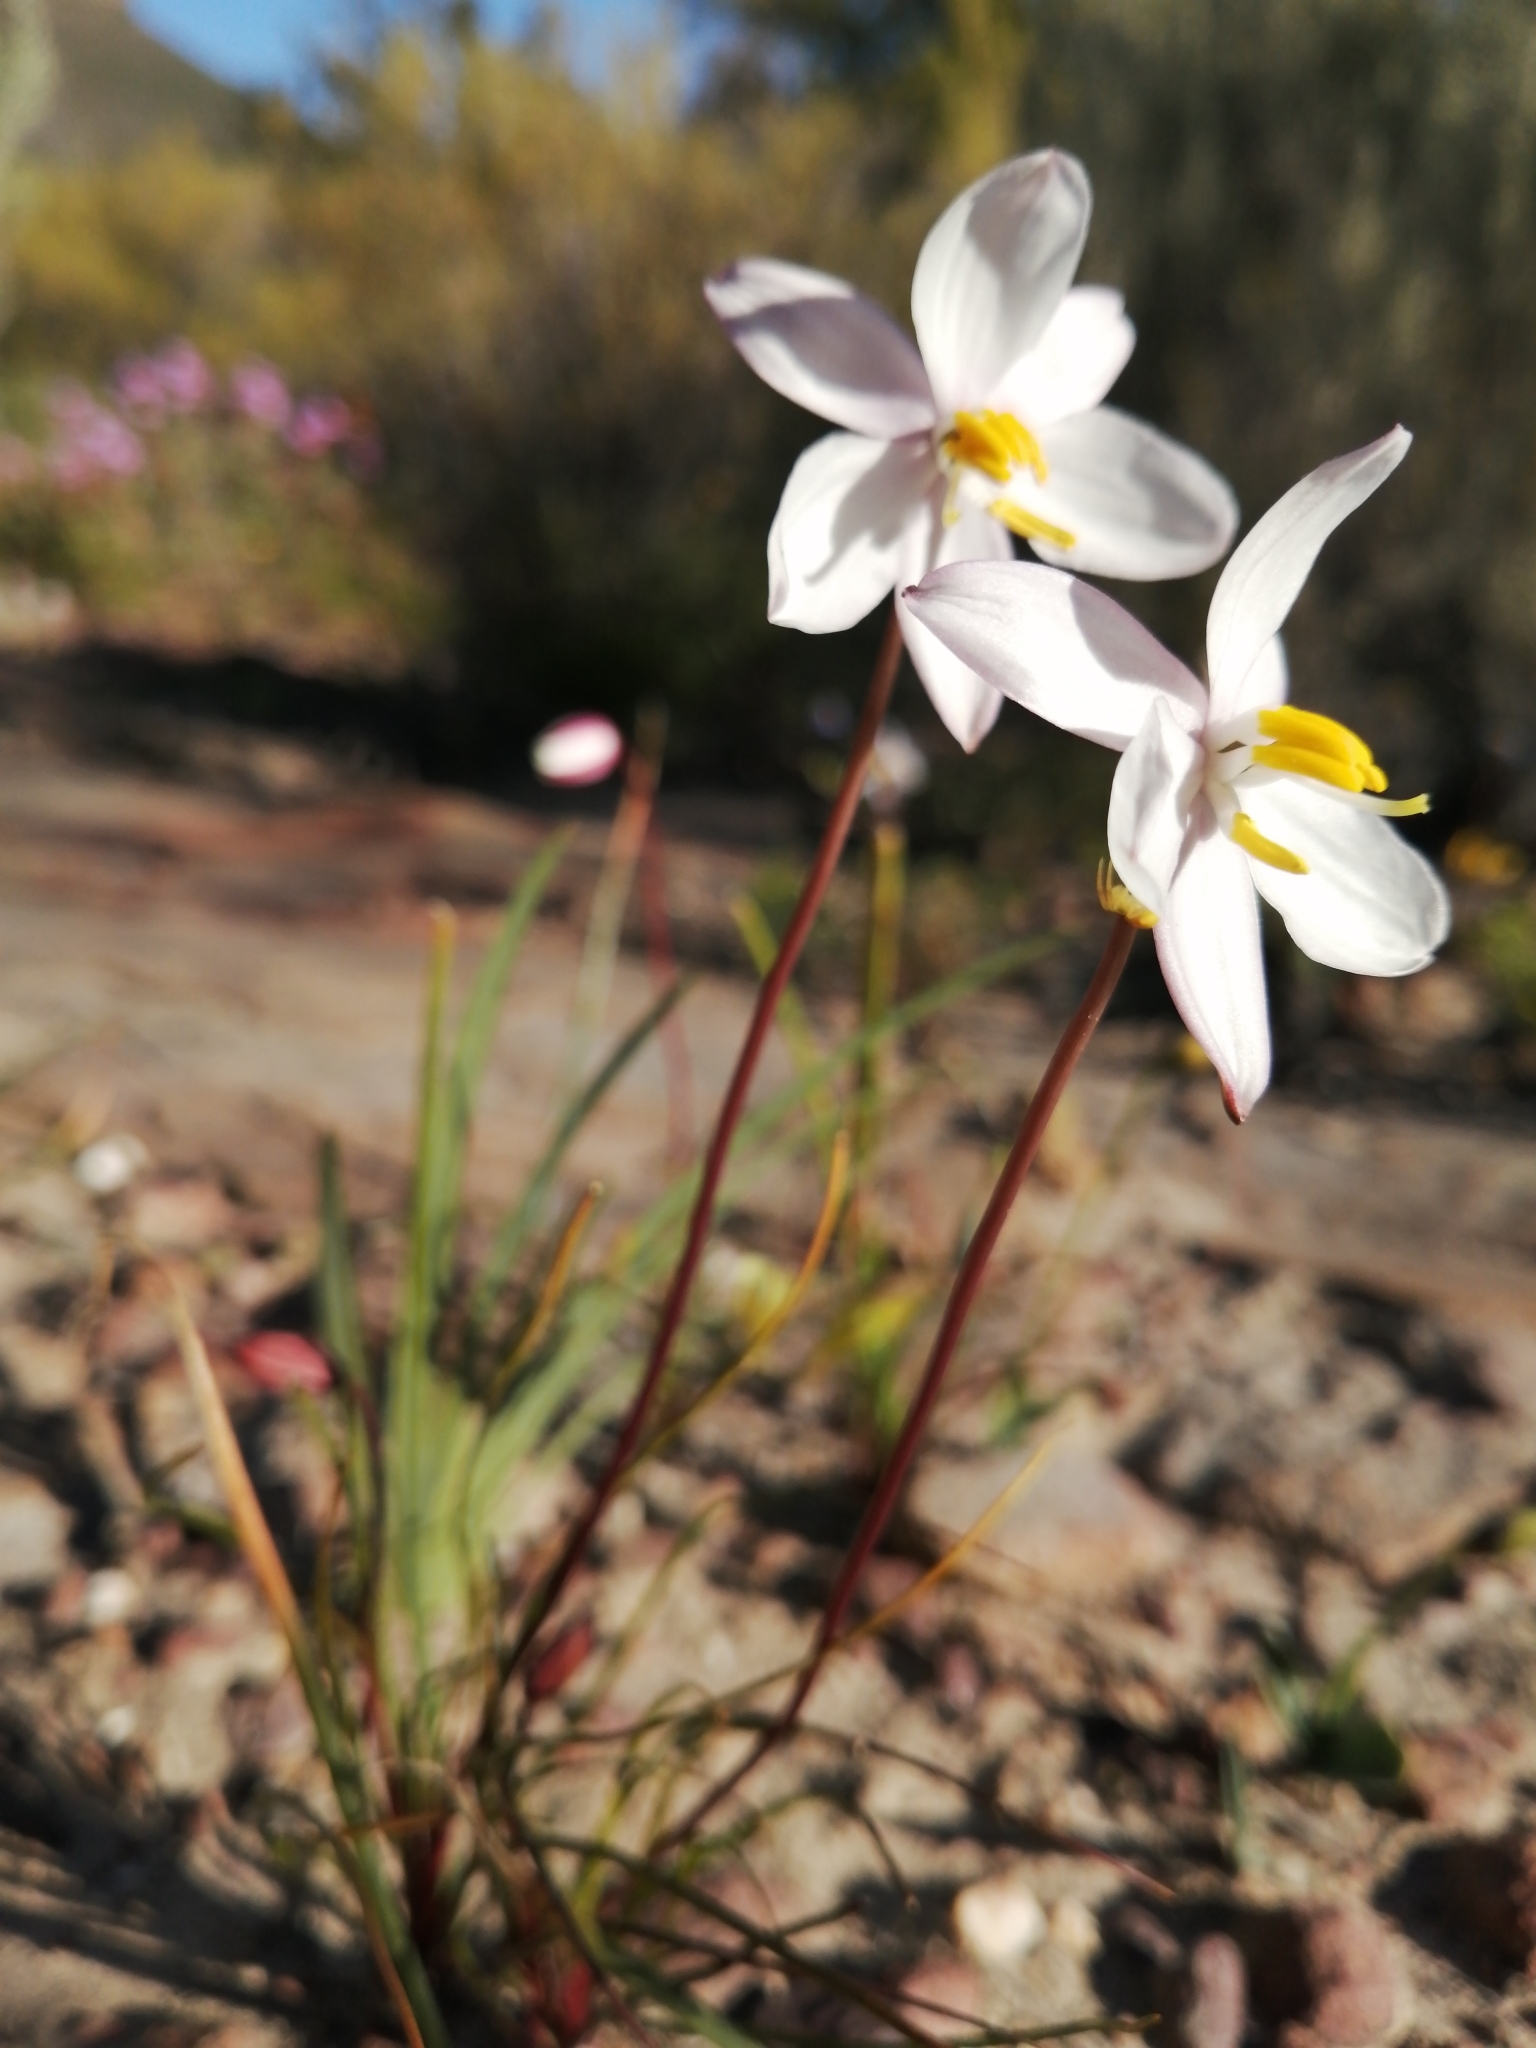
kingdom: Plantae
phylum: Tracheophyta
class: Liliopsida
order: Asparagales
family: Tecophilaeaceae
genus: Cyanella
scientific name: Cyanella alba
